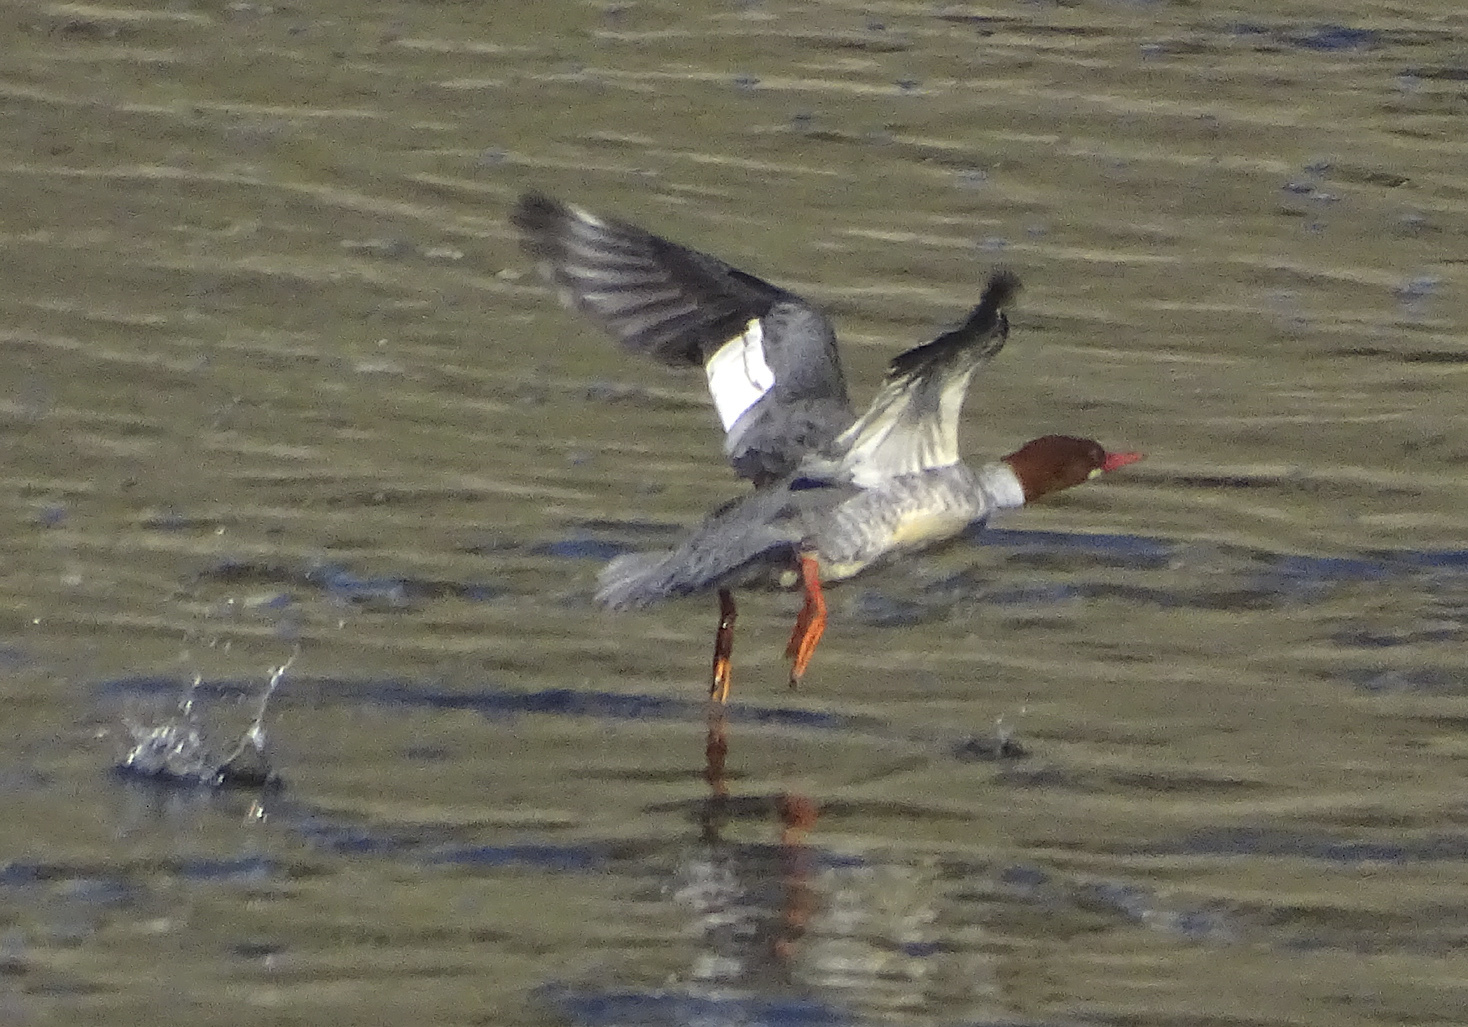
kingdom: Animalia
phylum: Chordata
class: Aves
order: Anseriformes
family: Anatidae
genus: Mergus
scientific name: Mergus merganser
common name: Common merganser
